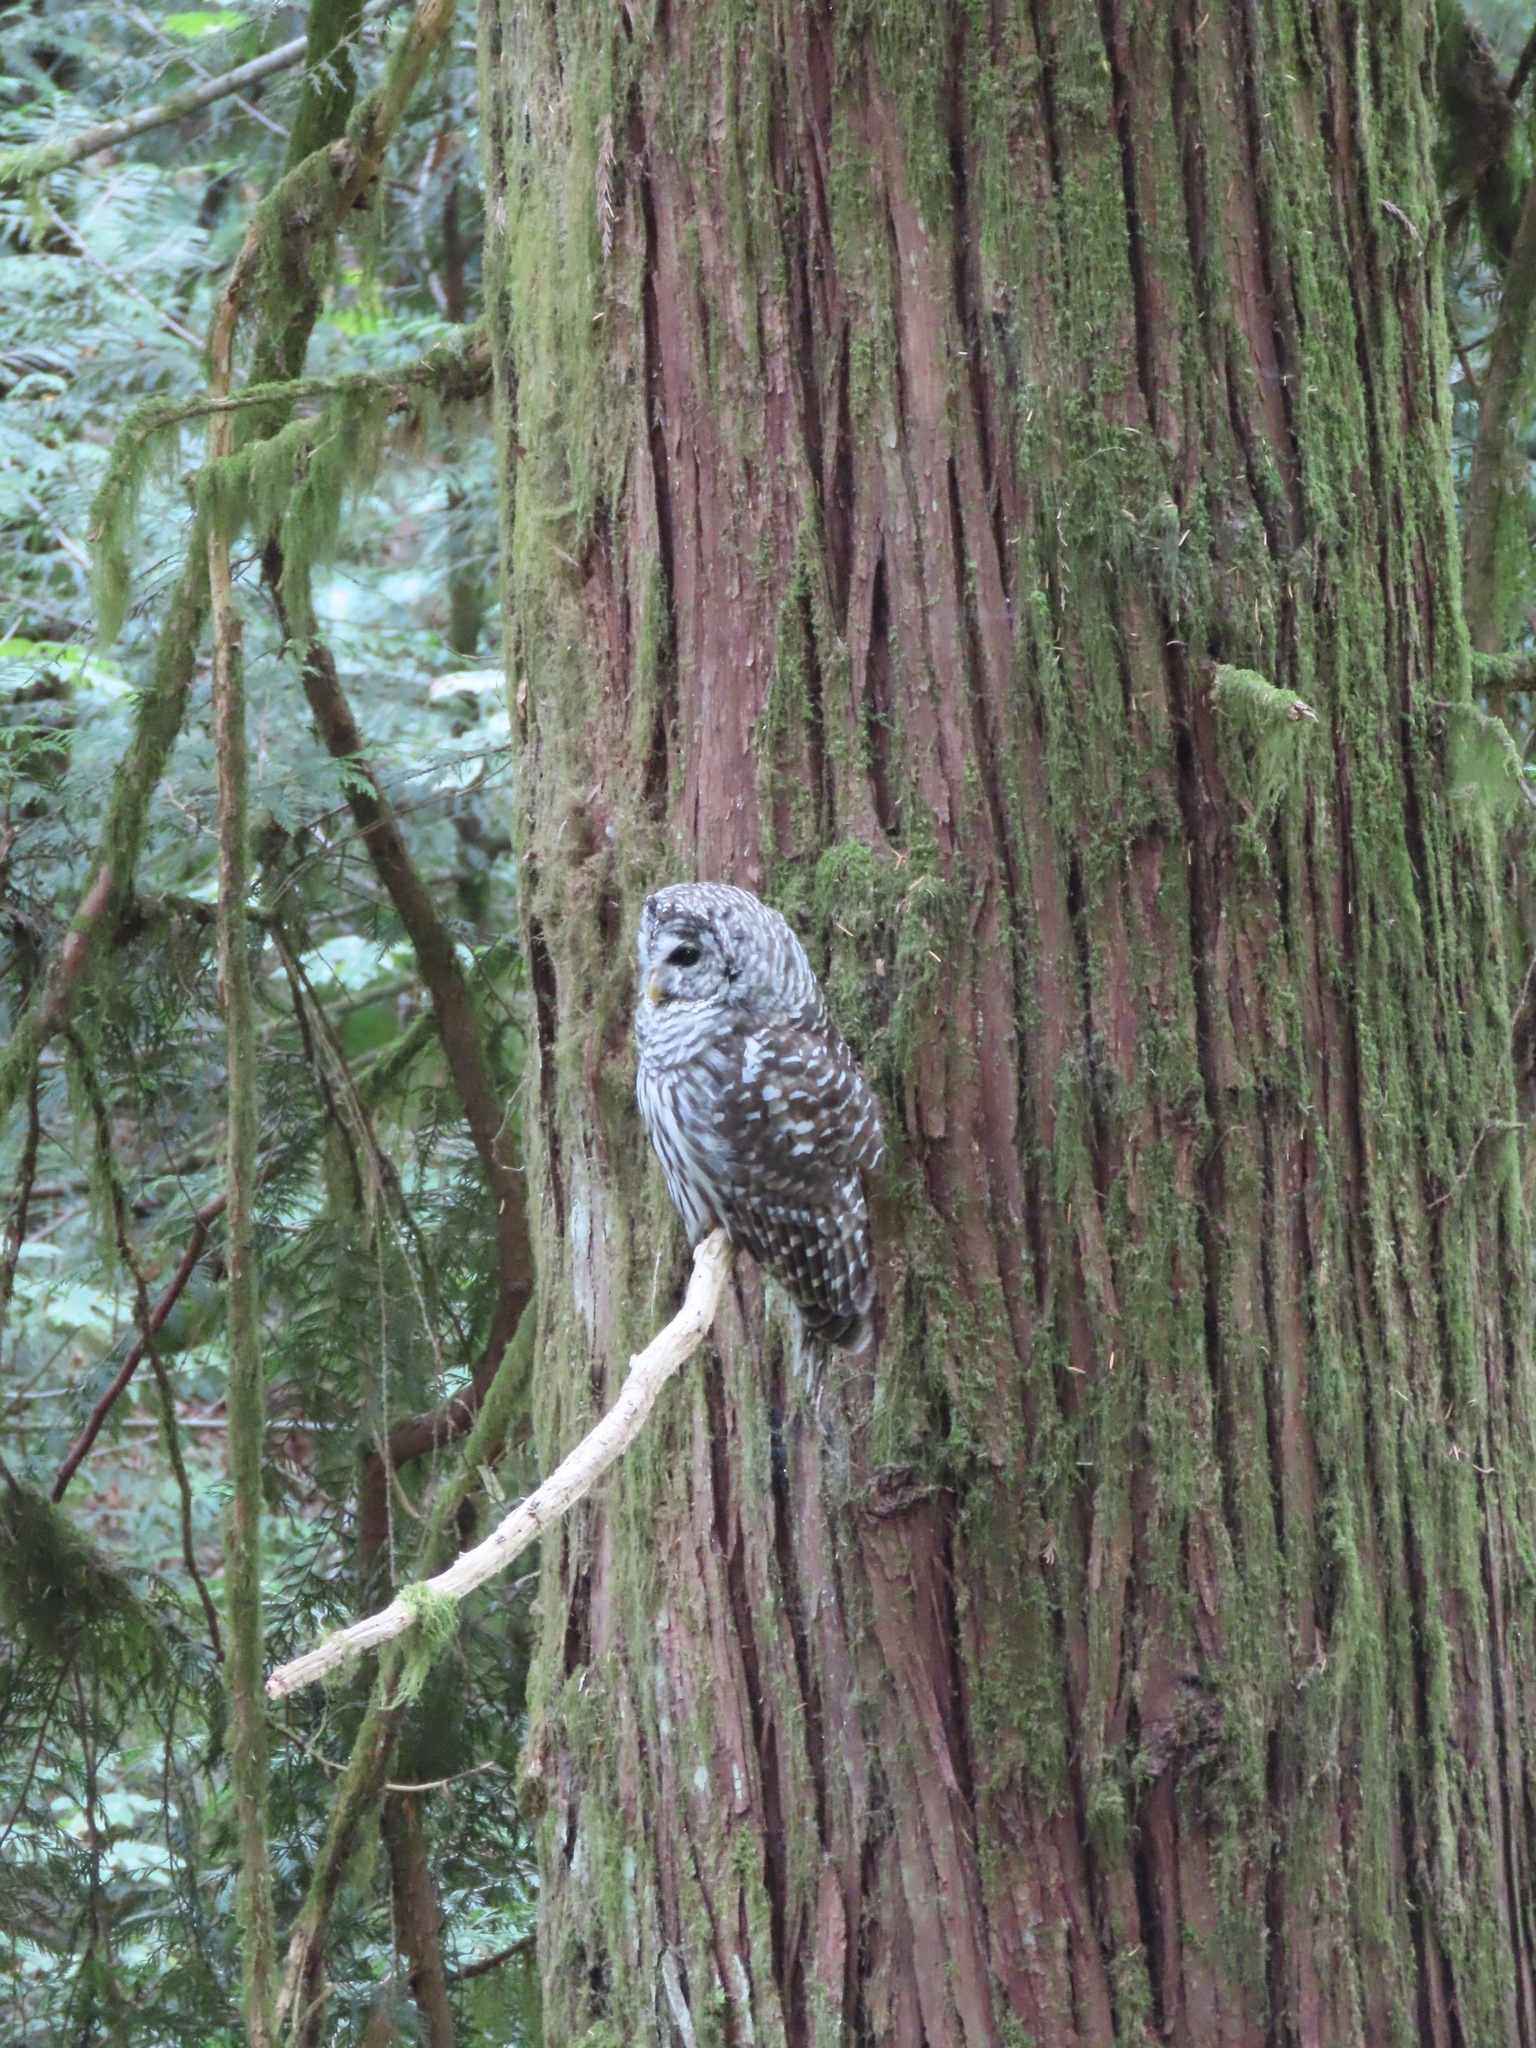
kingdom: Animalia
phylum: Chordata
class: Aves
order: Strigiformes
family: Strigidae
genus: Strix
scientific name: Strix varia
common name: Barred owl
